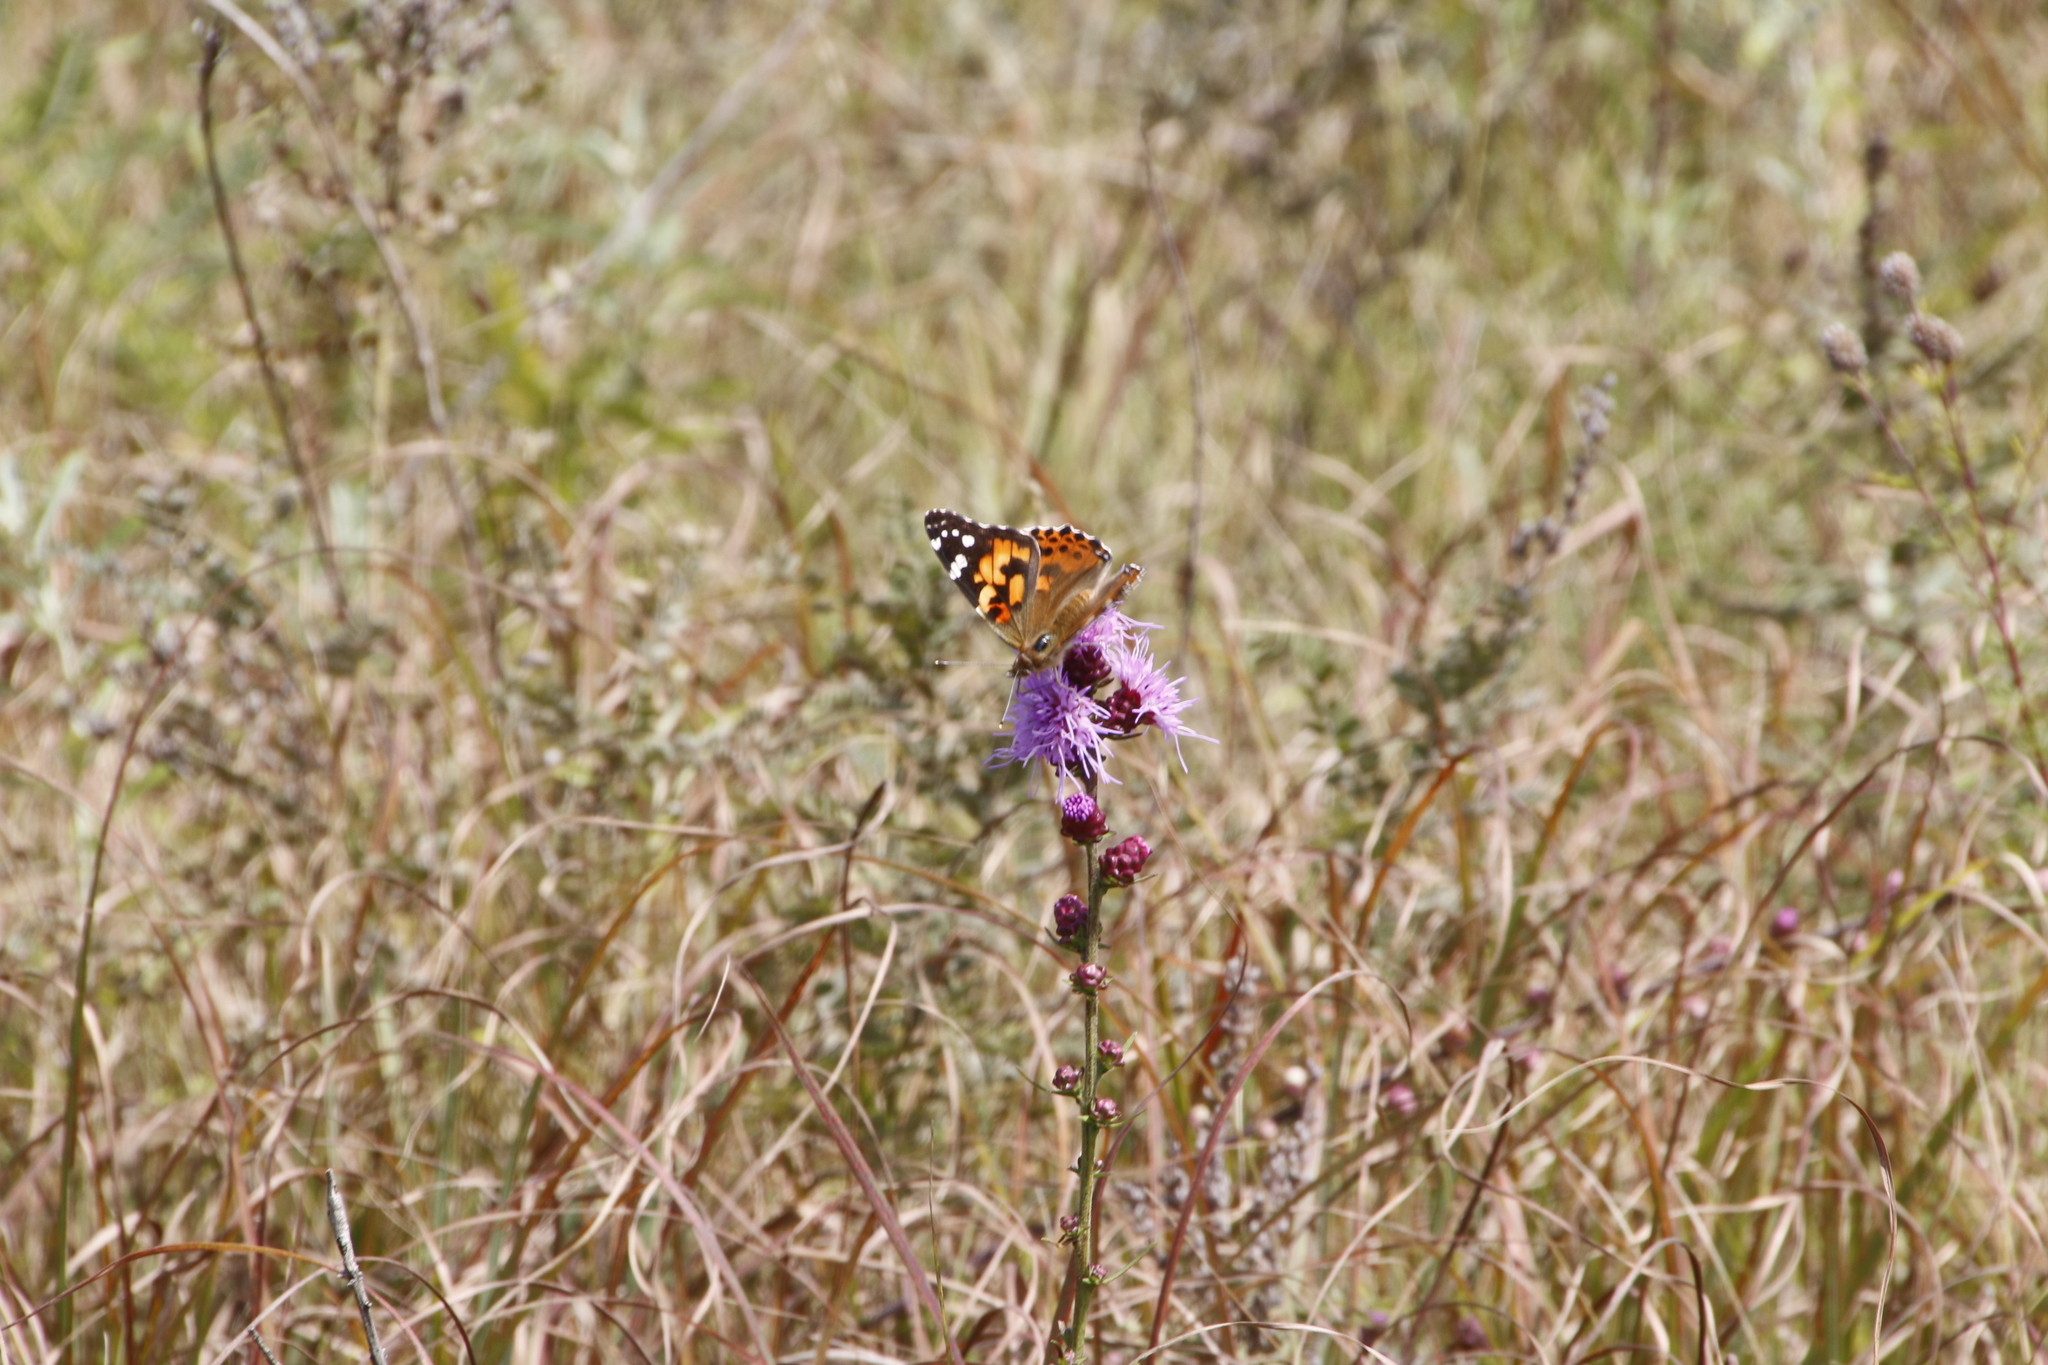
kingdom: Animalia
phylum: Arthropoda
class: Insecta
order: Lepidoptera
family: Nymphalidae
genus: Vanessa
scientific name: Vanessa cardui
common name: Painted lady
